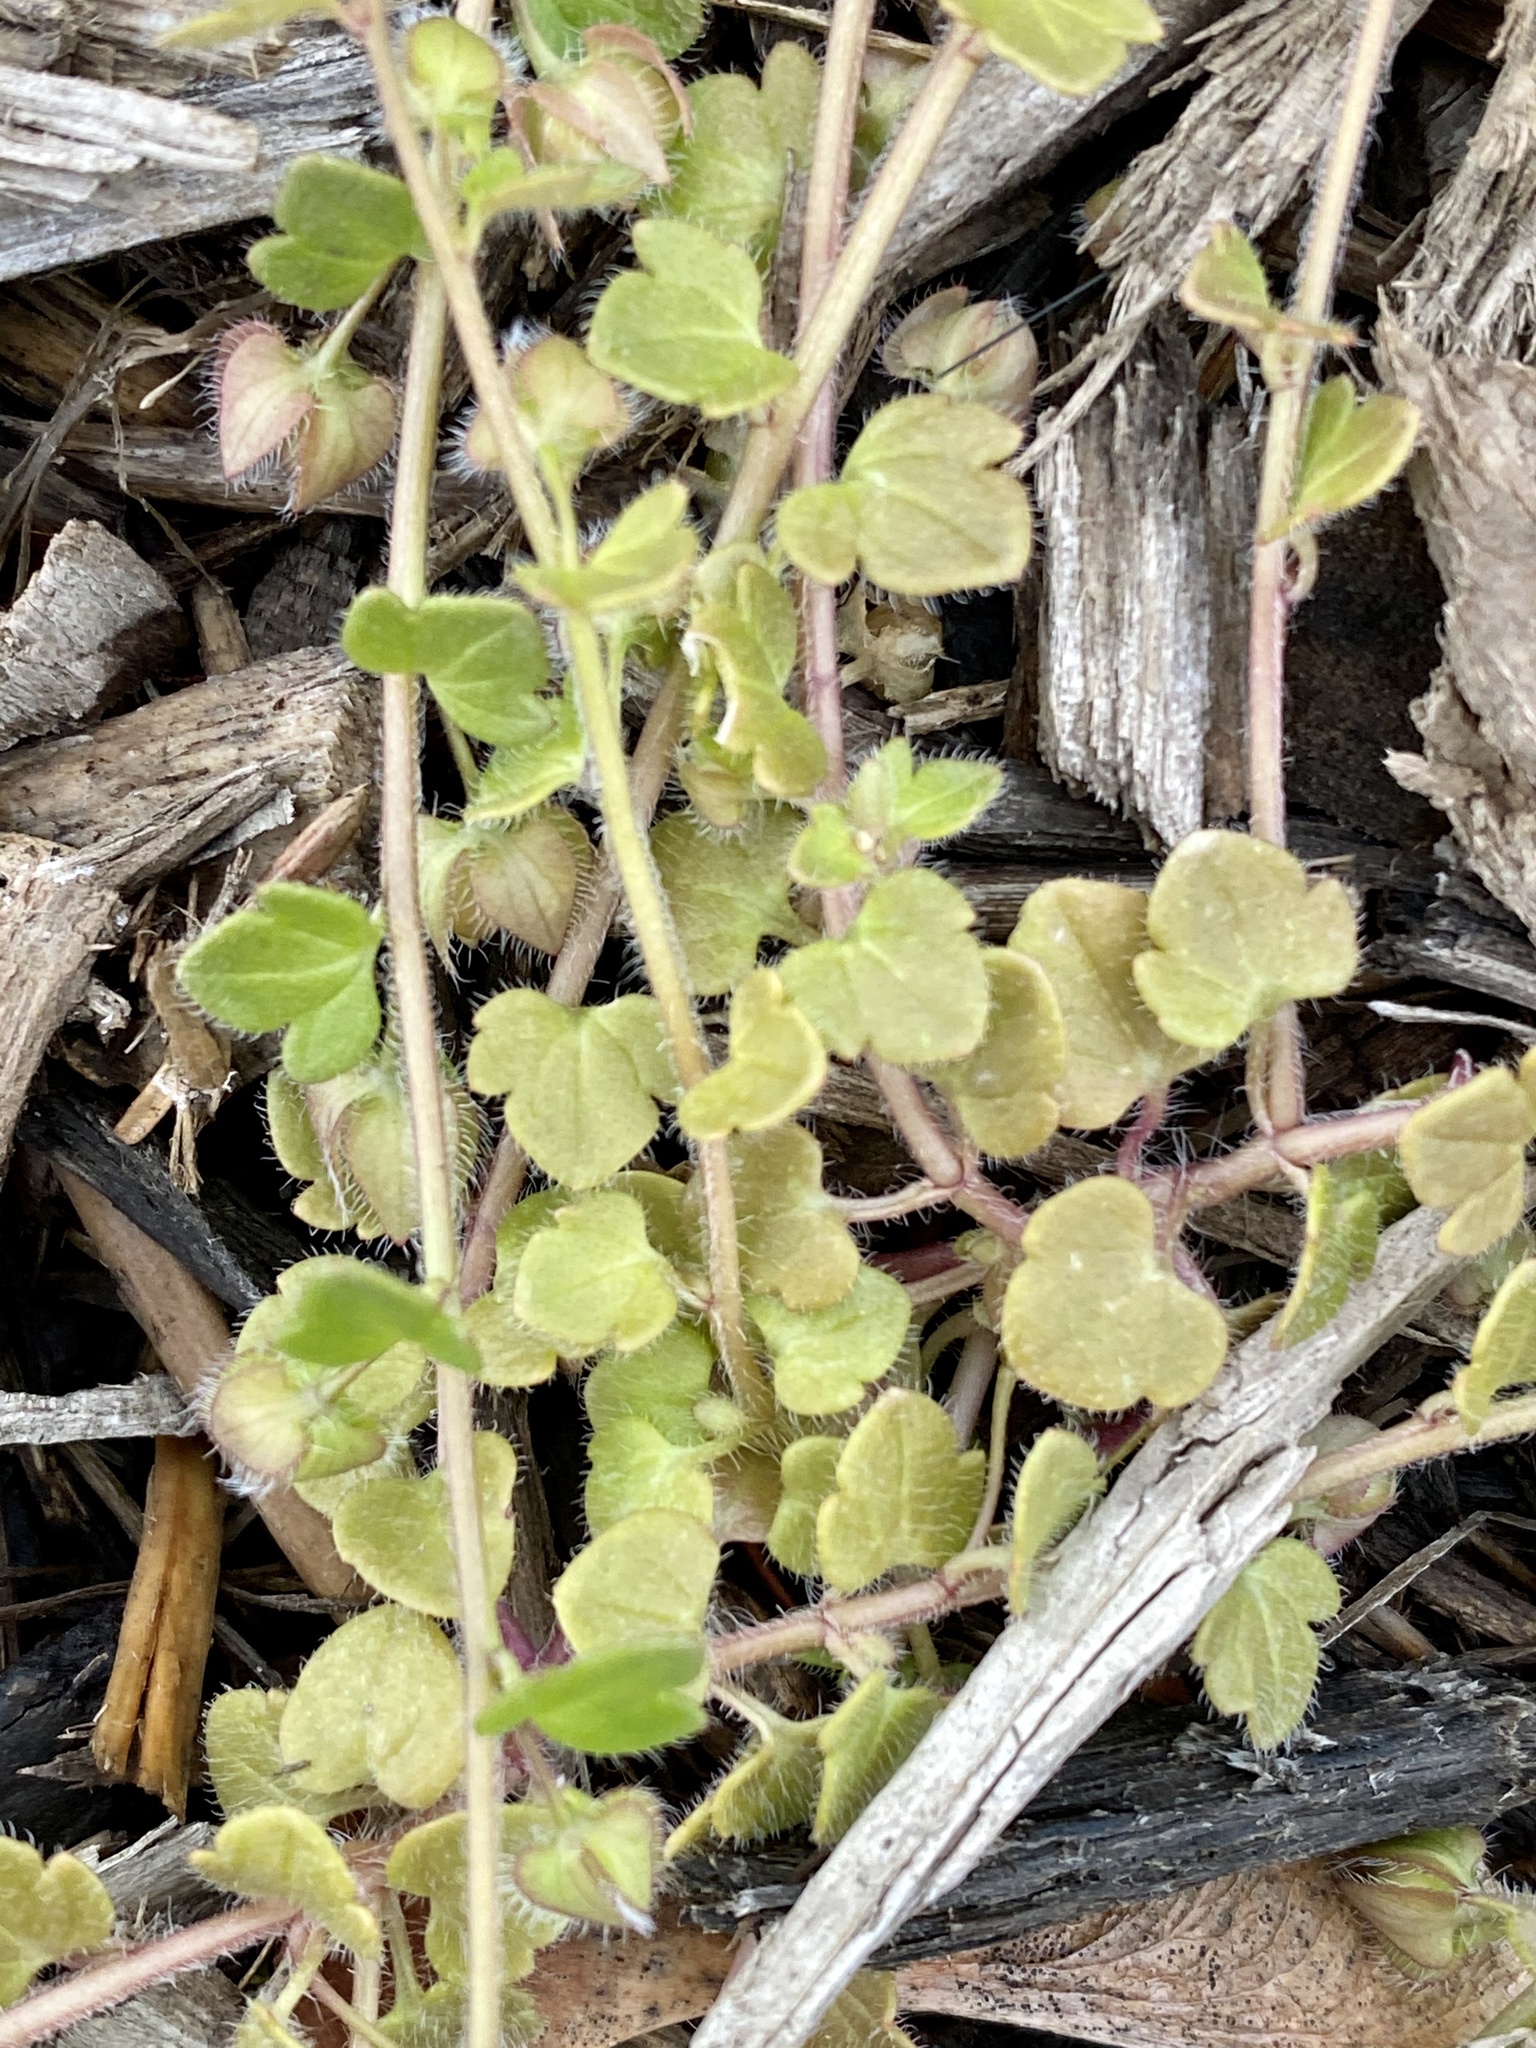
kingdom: Plantae
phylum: Tracheophyta
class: Magnoliopsida
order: Lamiales
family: Plantaginaceae
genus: Veronica
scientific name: Veronica hederifolia
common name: Ivy-leaved speedwell
